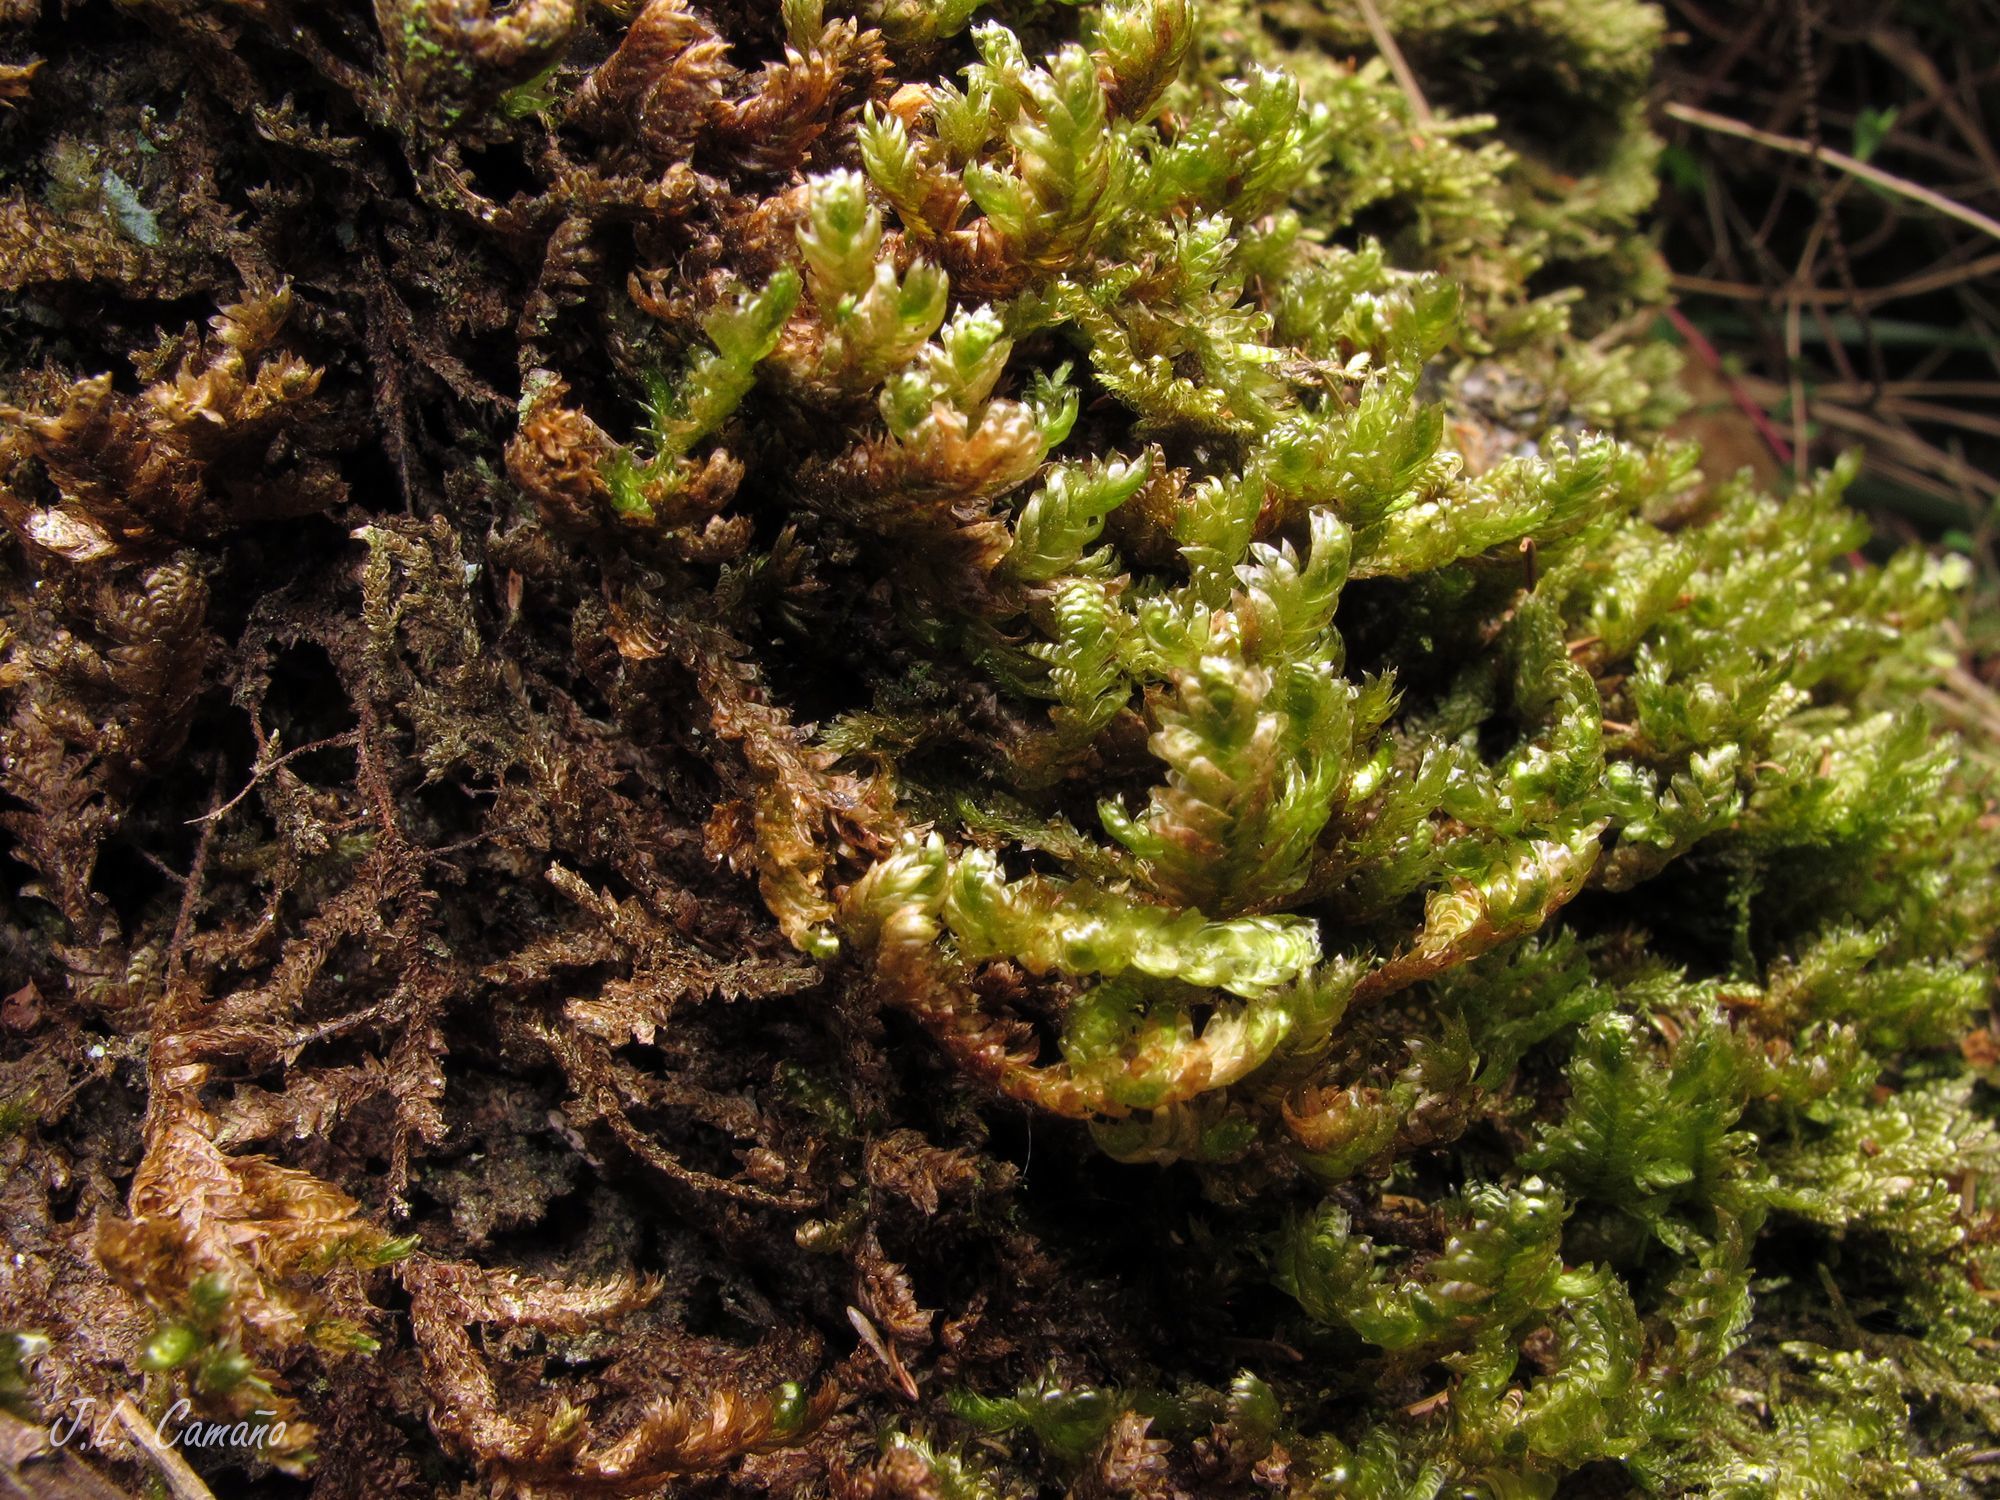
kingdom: Plantae
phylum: Bryophyta
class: Bryopsida
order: Hypnales
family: Neckeraceae
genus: Exsertotheca
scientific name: Exsertotheca crispa
